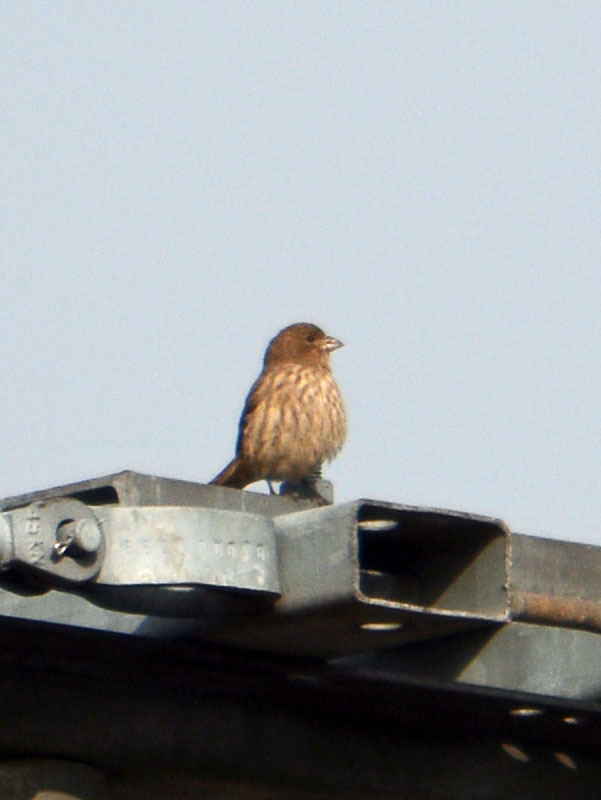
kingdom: Animalia
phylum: Chordata
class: Aves
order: Passeriformes
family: Fringillidae
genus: Haemorhous
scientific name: Haemorhous mexicanus
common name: House finch
